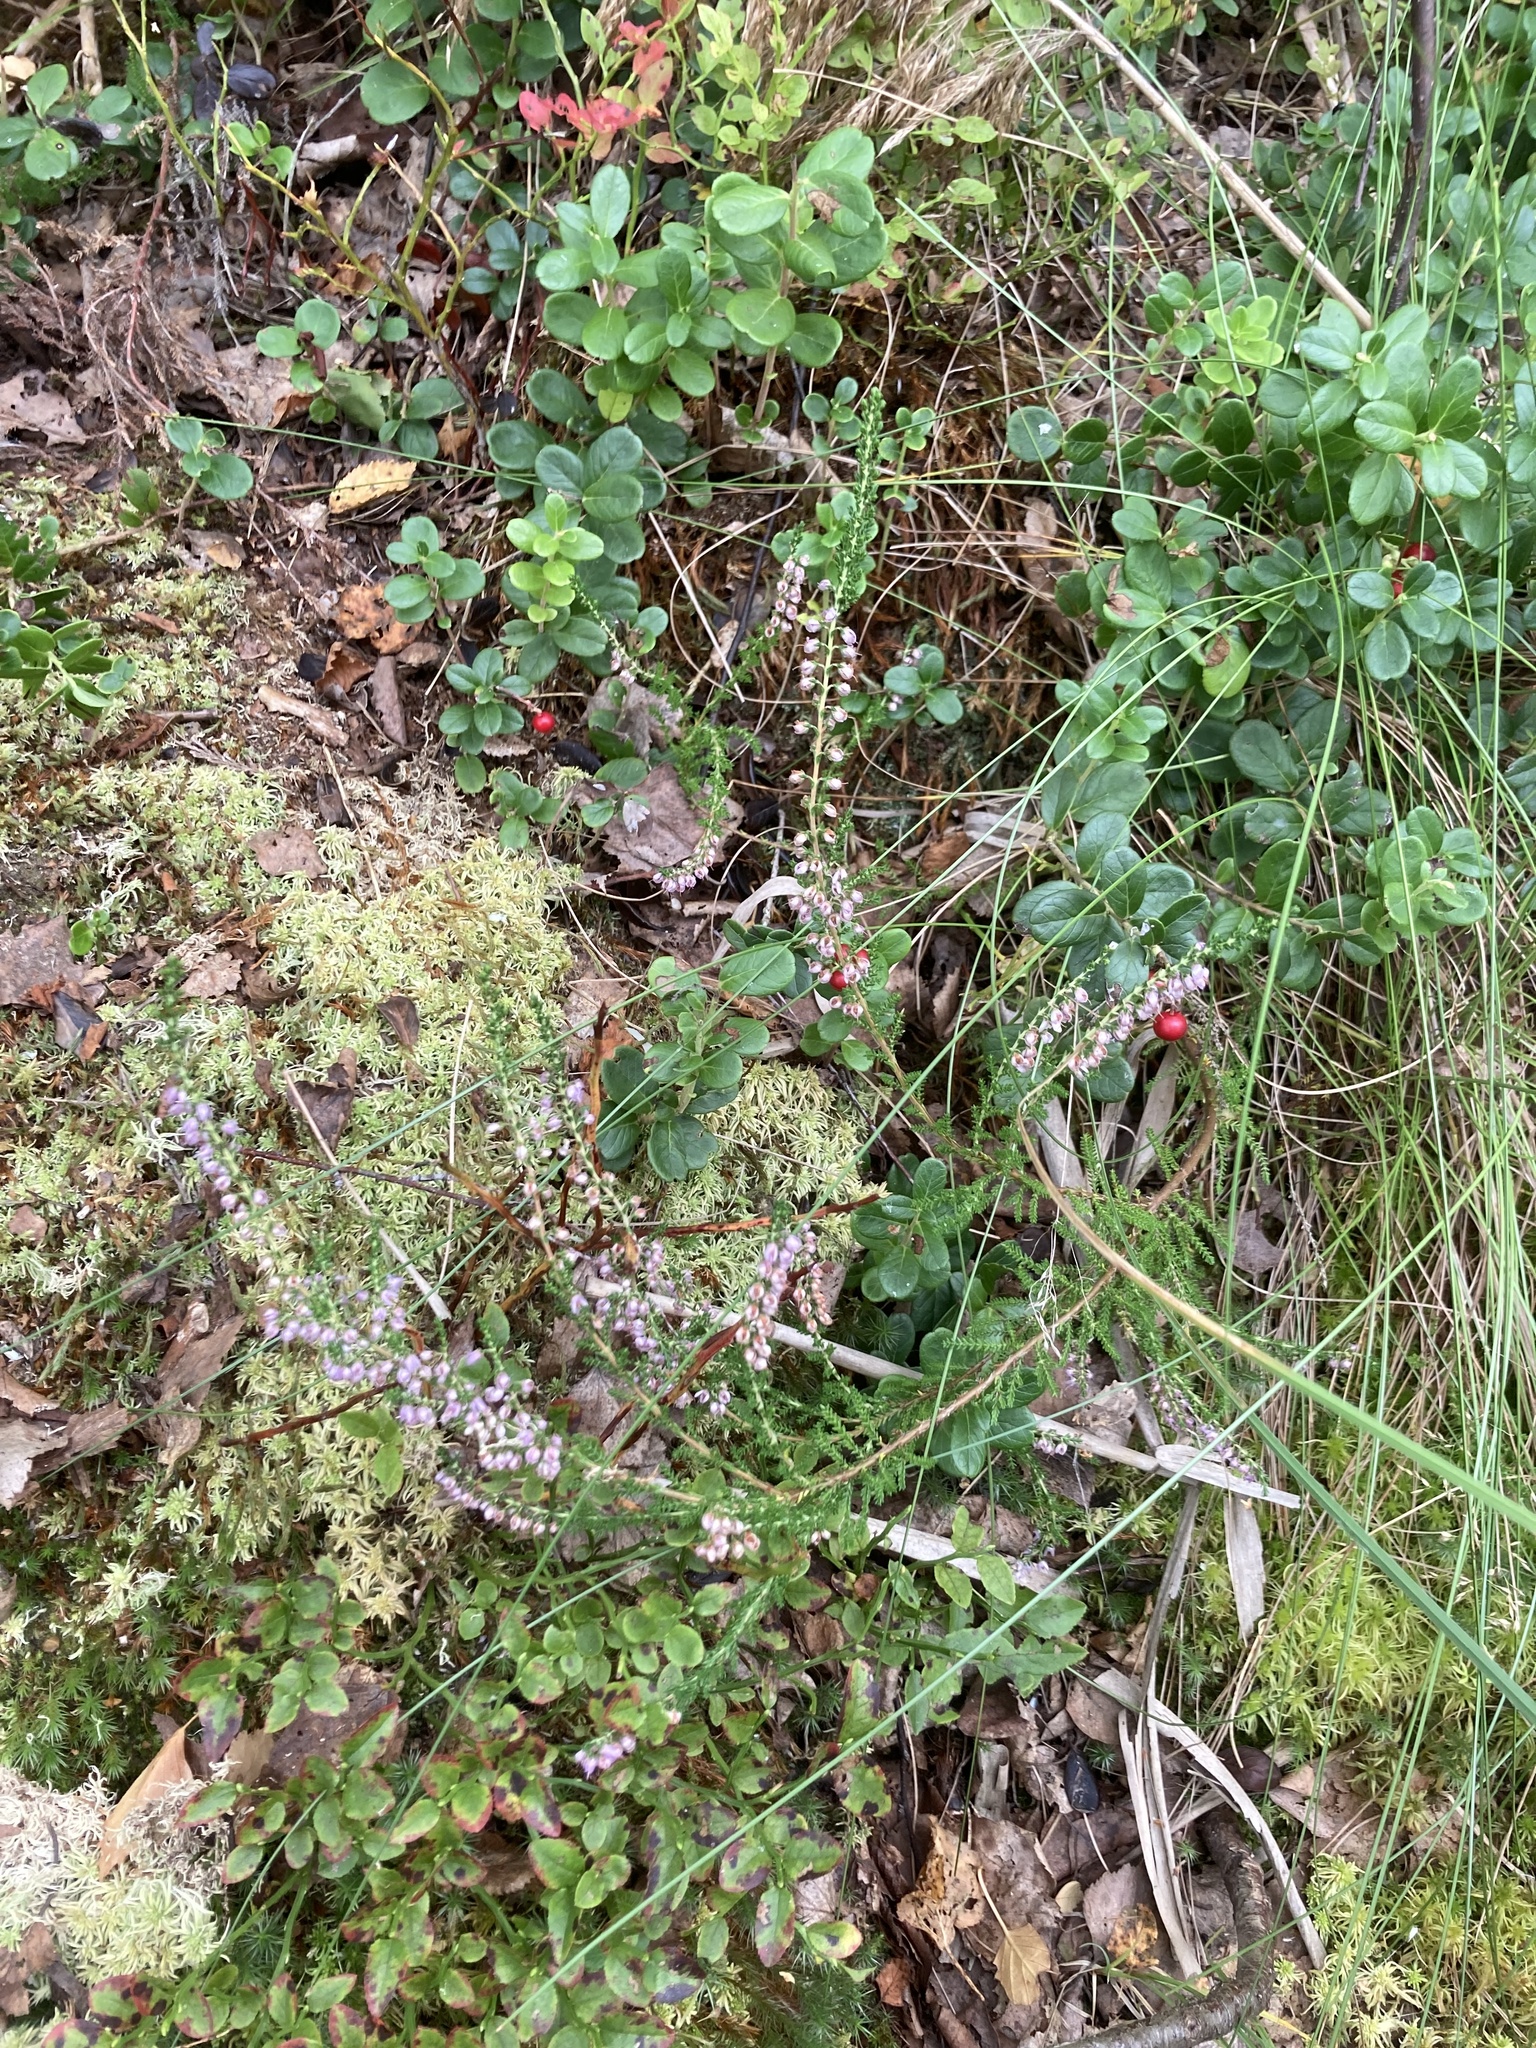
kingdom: Plantae
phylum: Tracheophyta
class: Magnoliopsida
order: Ericales
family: Ericaceae
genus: Calluna
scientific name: Calluna vulgaris
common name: Heather
